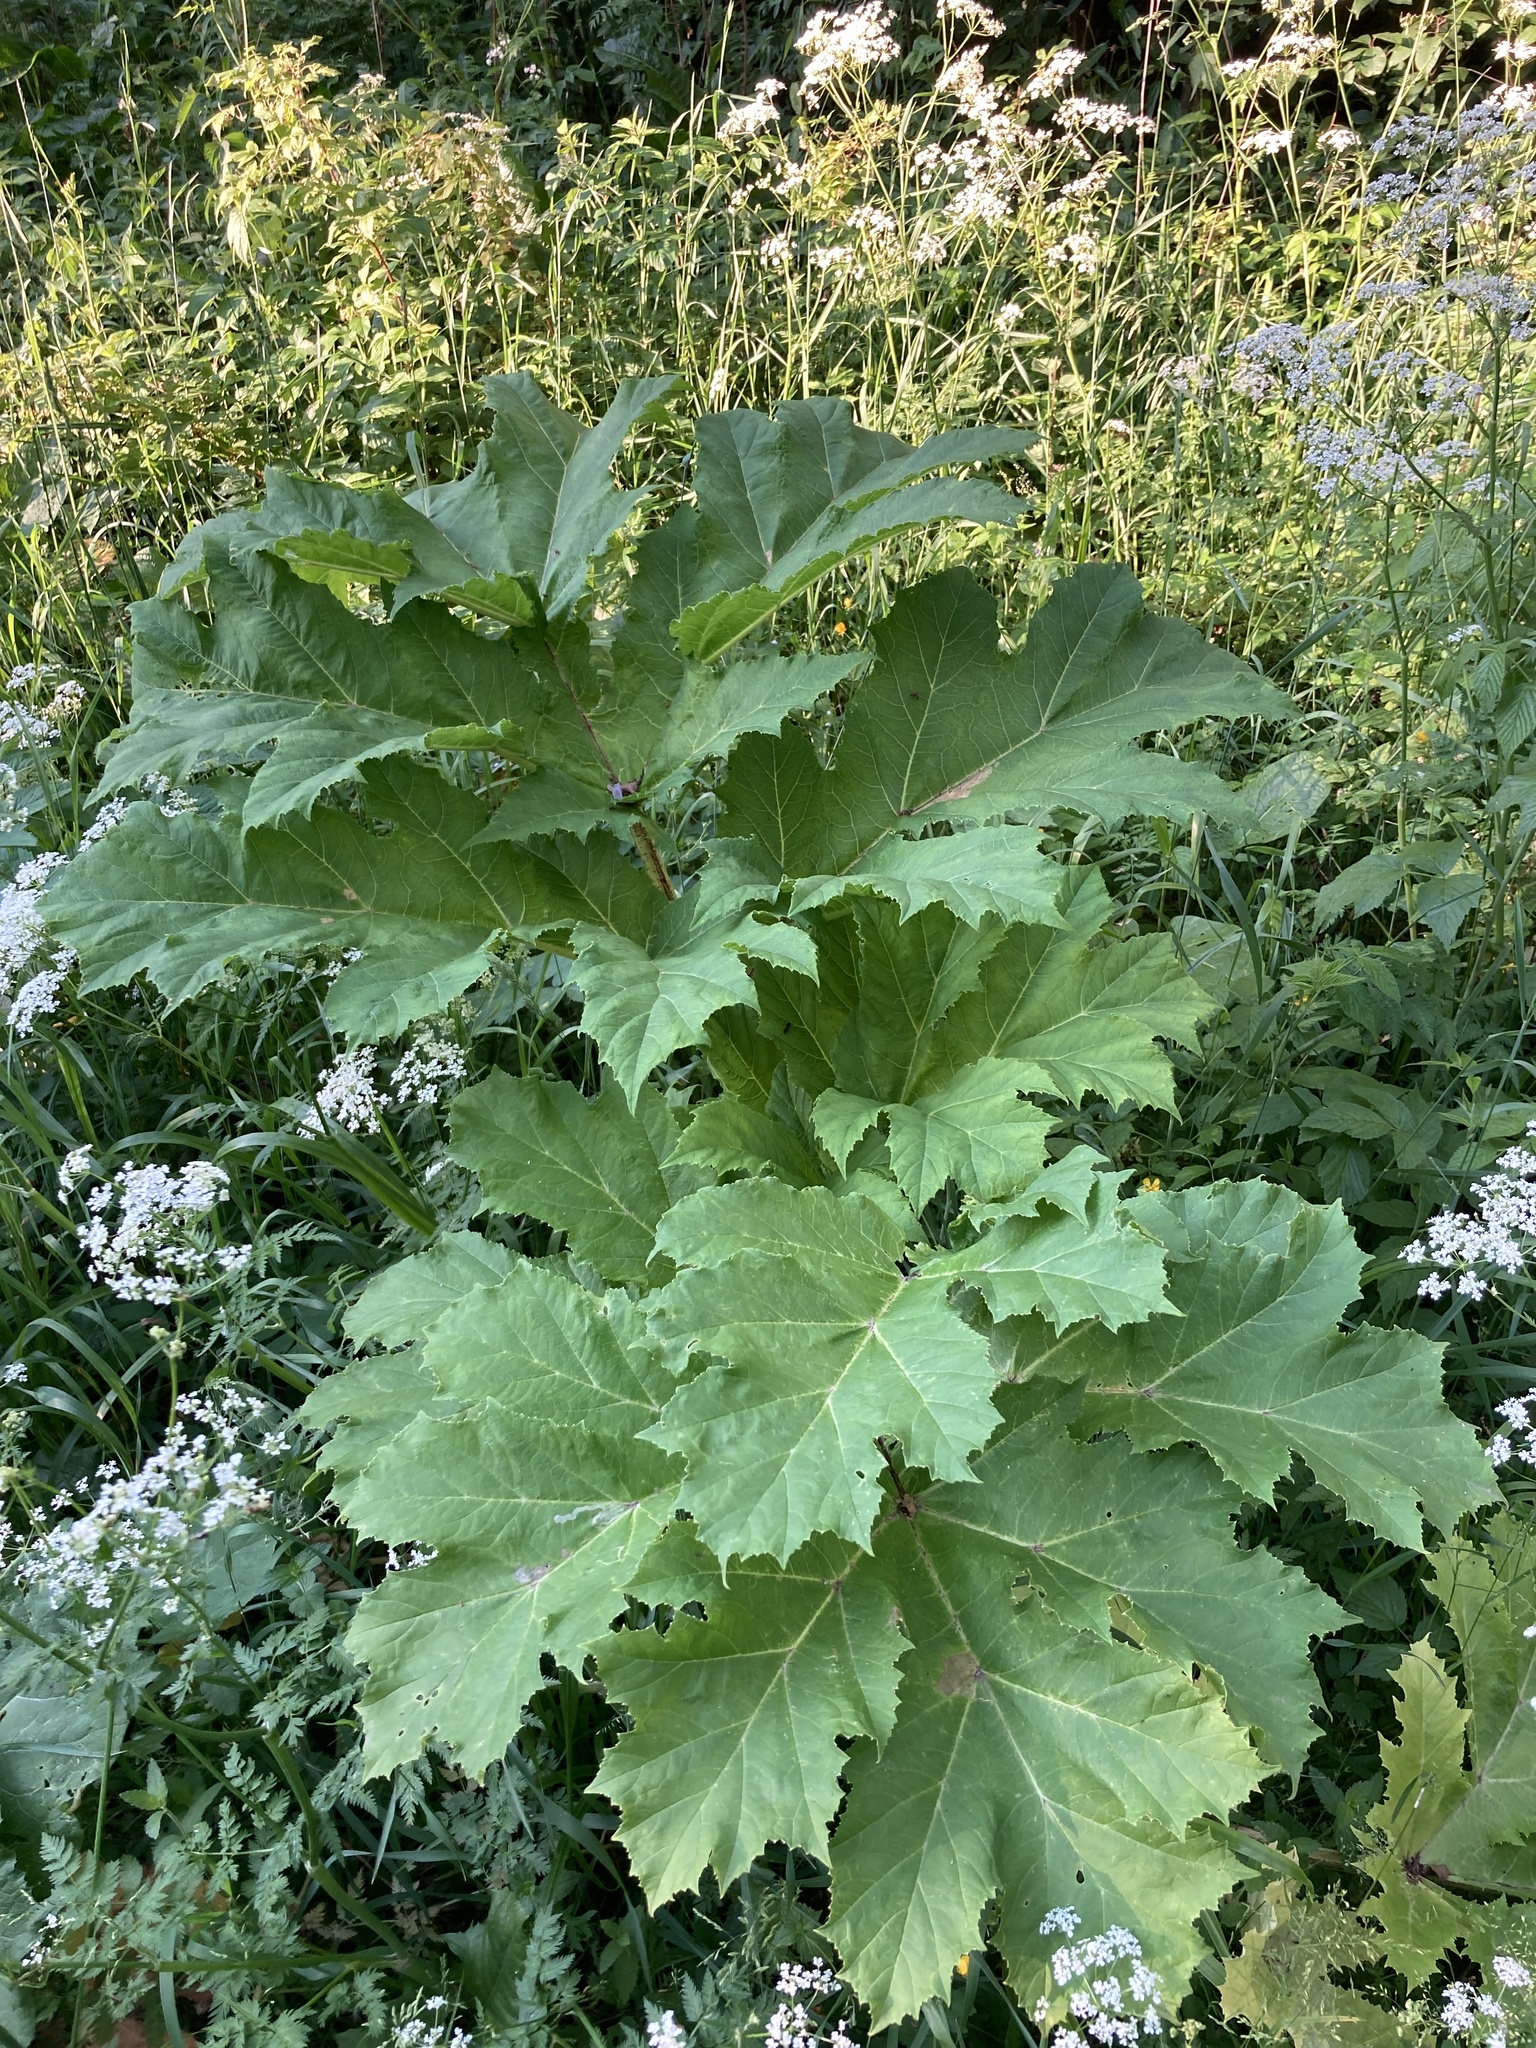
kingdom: Plantae
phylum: Tracheophyta
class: Magnoliopsida
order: Apiales
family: Apiaceae
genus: Heracleum
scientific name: Heracleum sosnowskyi
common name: Sosnowsky's hogweed
